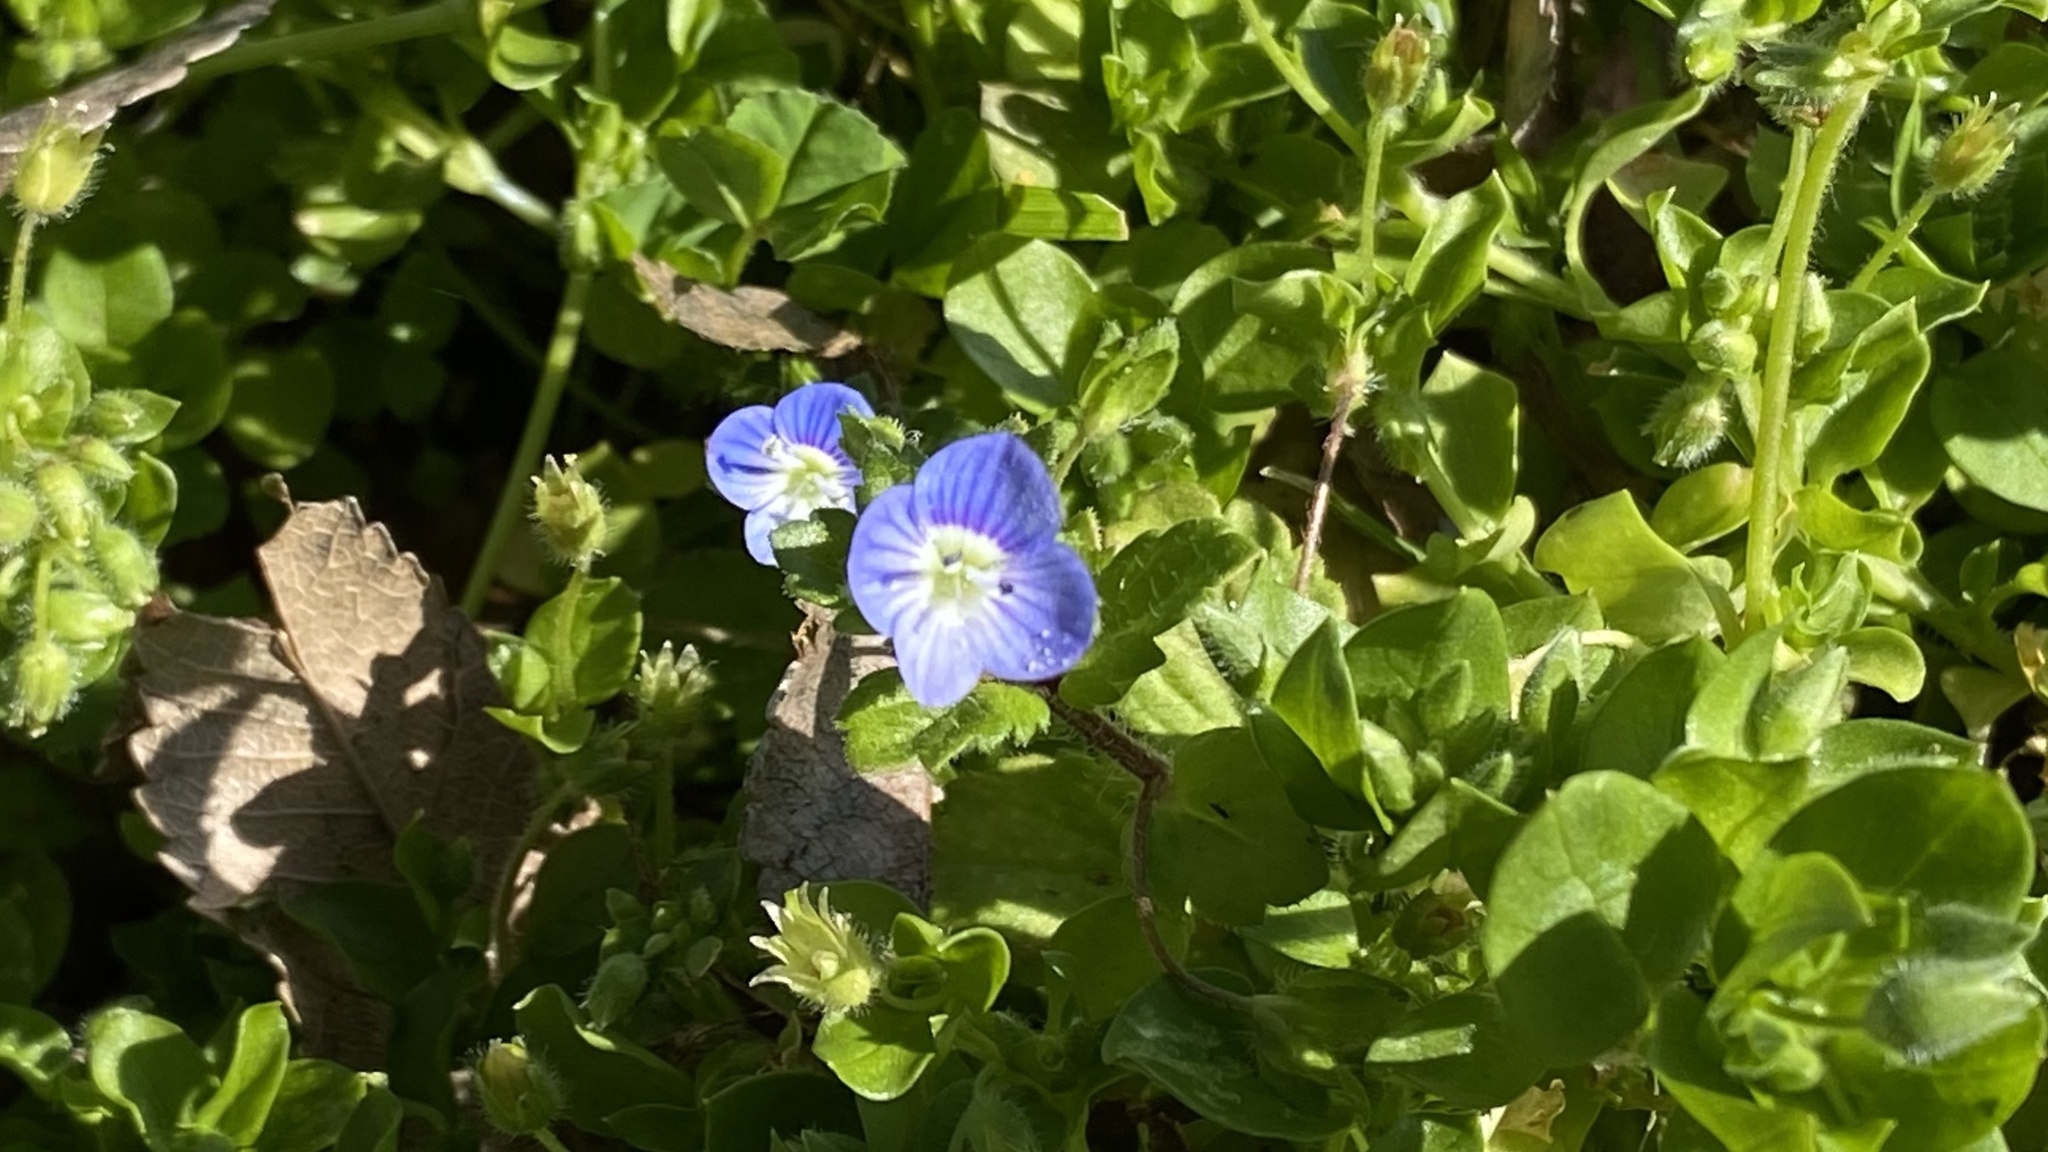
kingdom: Plantae
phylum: Tracheophyta
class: Magnoliopsida
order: Lamiales
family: Plantaginaceae
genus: Veronica
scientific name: Veronica persica
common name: Common field-speedwell
